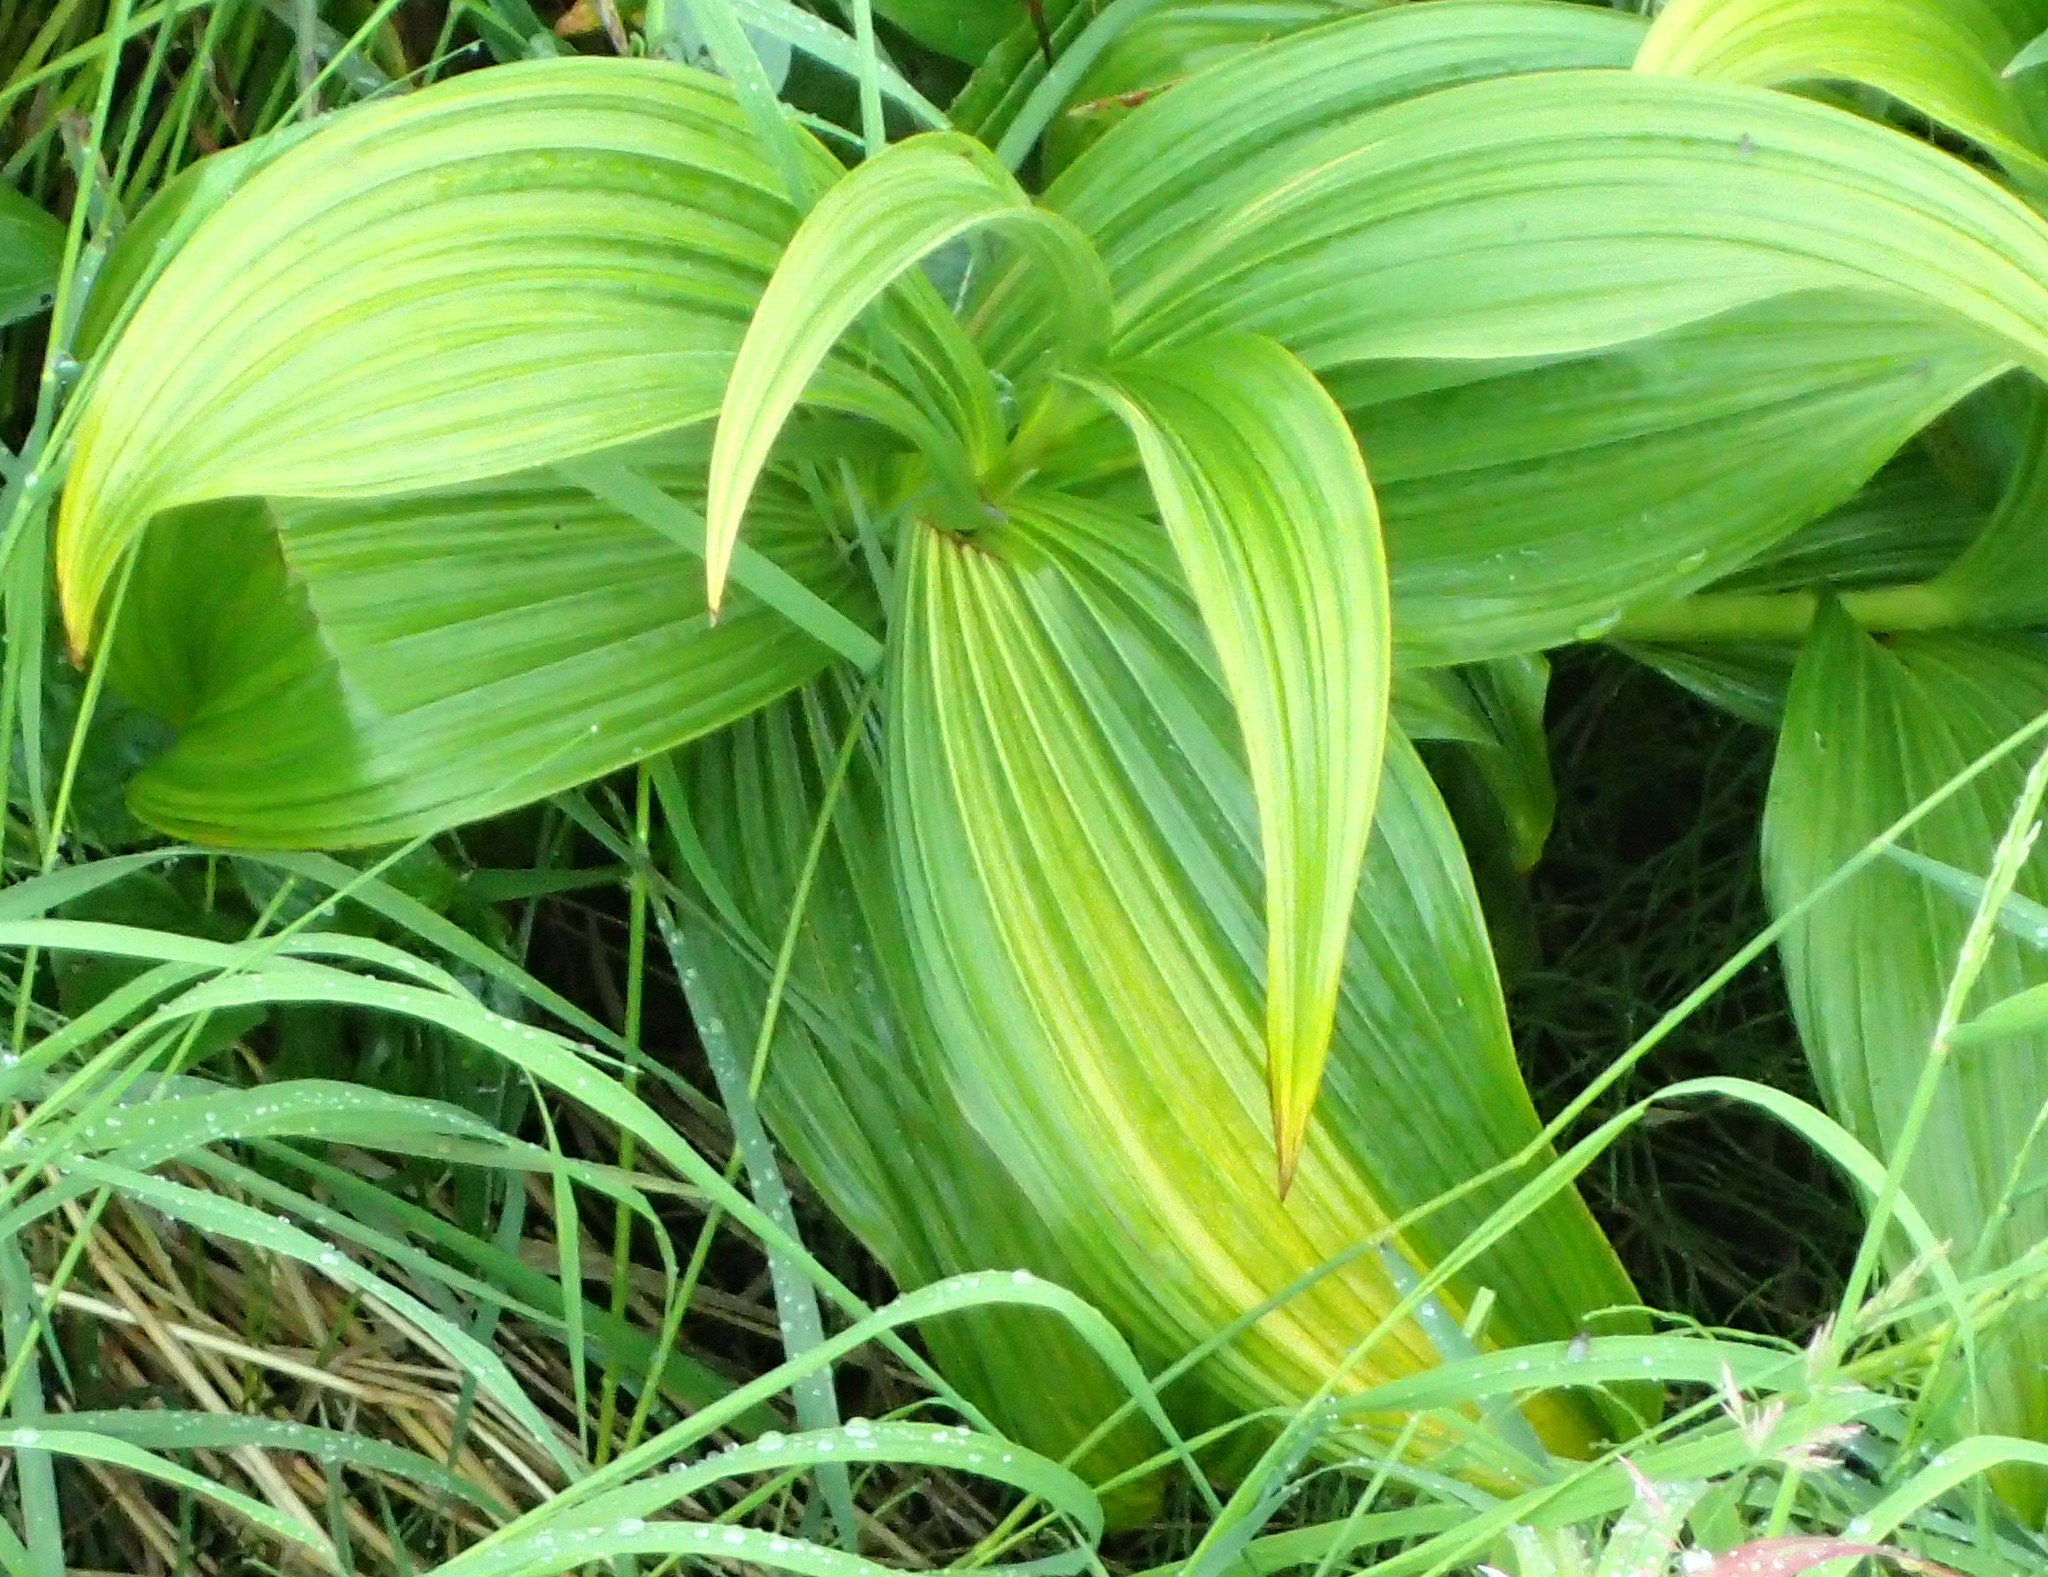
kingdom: Plantae
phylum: Tracheophyta
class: Liliopsida
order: Liliales
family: Melanthiaceae
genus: Veratrum
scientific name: Veratrum viride
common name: American false hellebore
